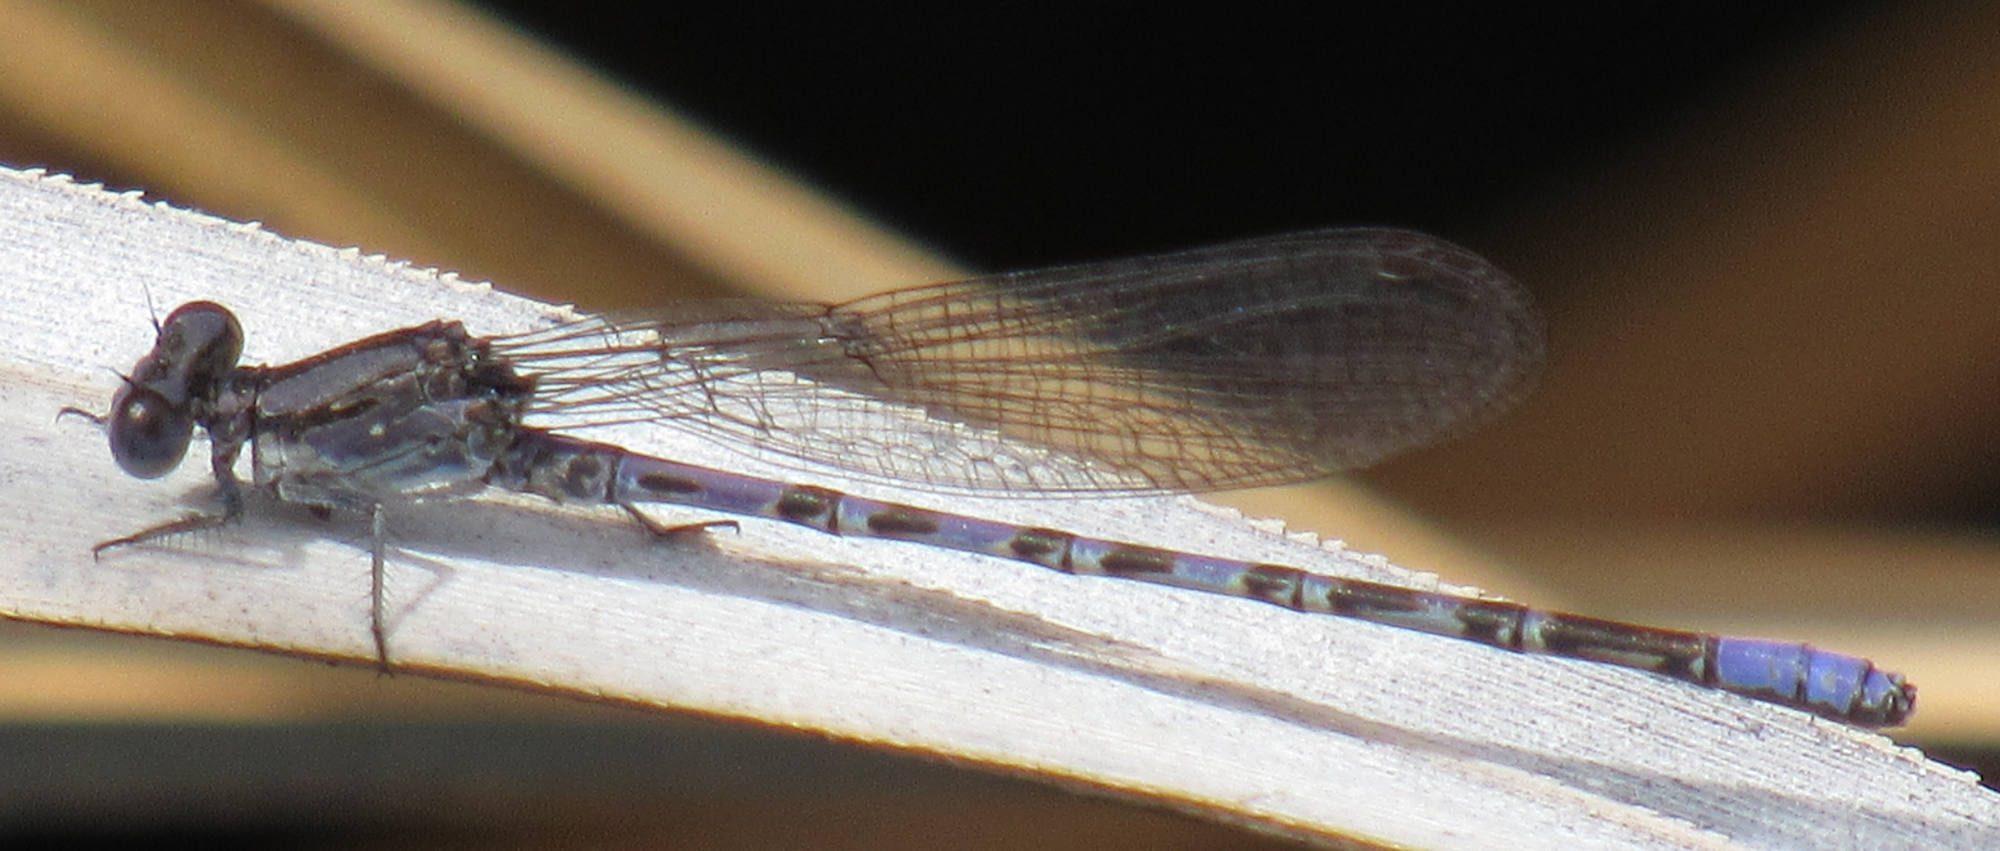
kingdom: Animalia
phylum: Arthropoda
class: Insecta
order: Odonata
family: Coenagrionidae
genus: Argia
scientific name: Argia immunda
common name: Kiowa dancer
